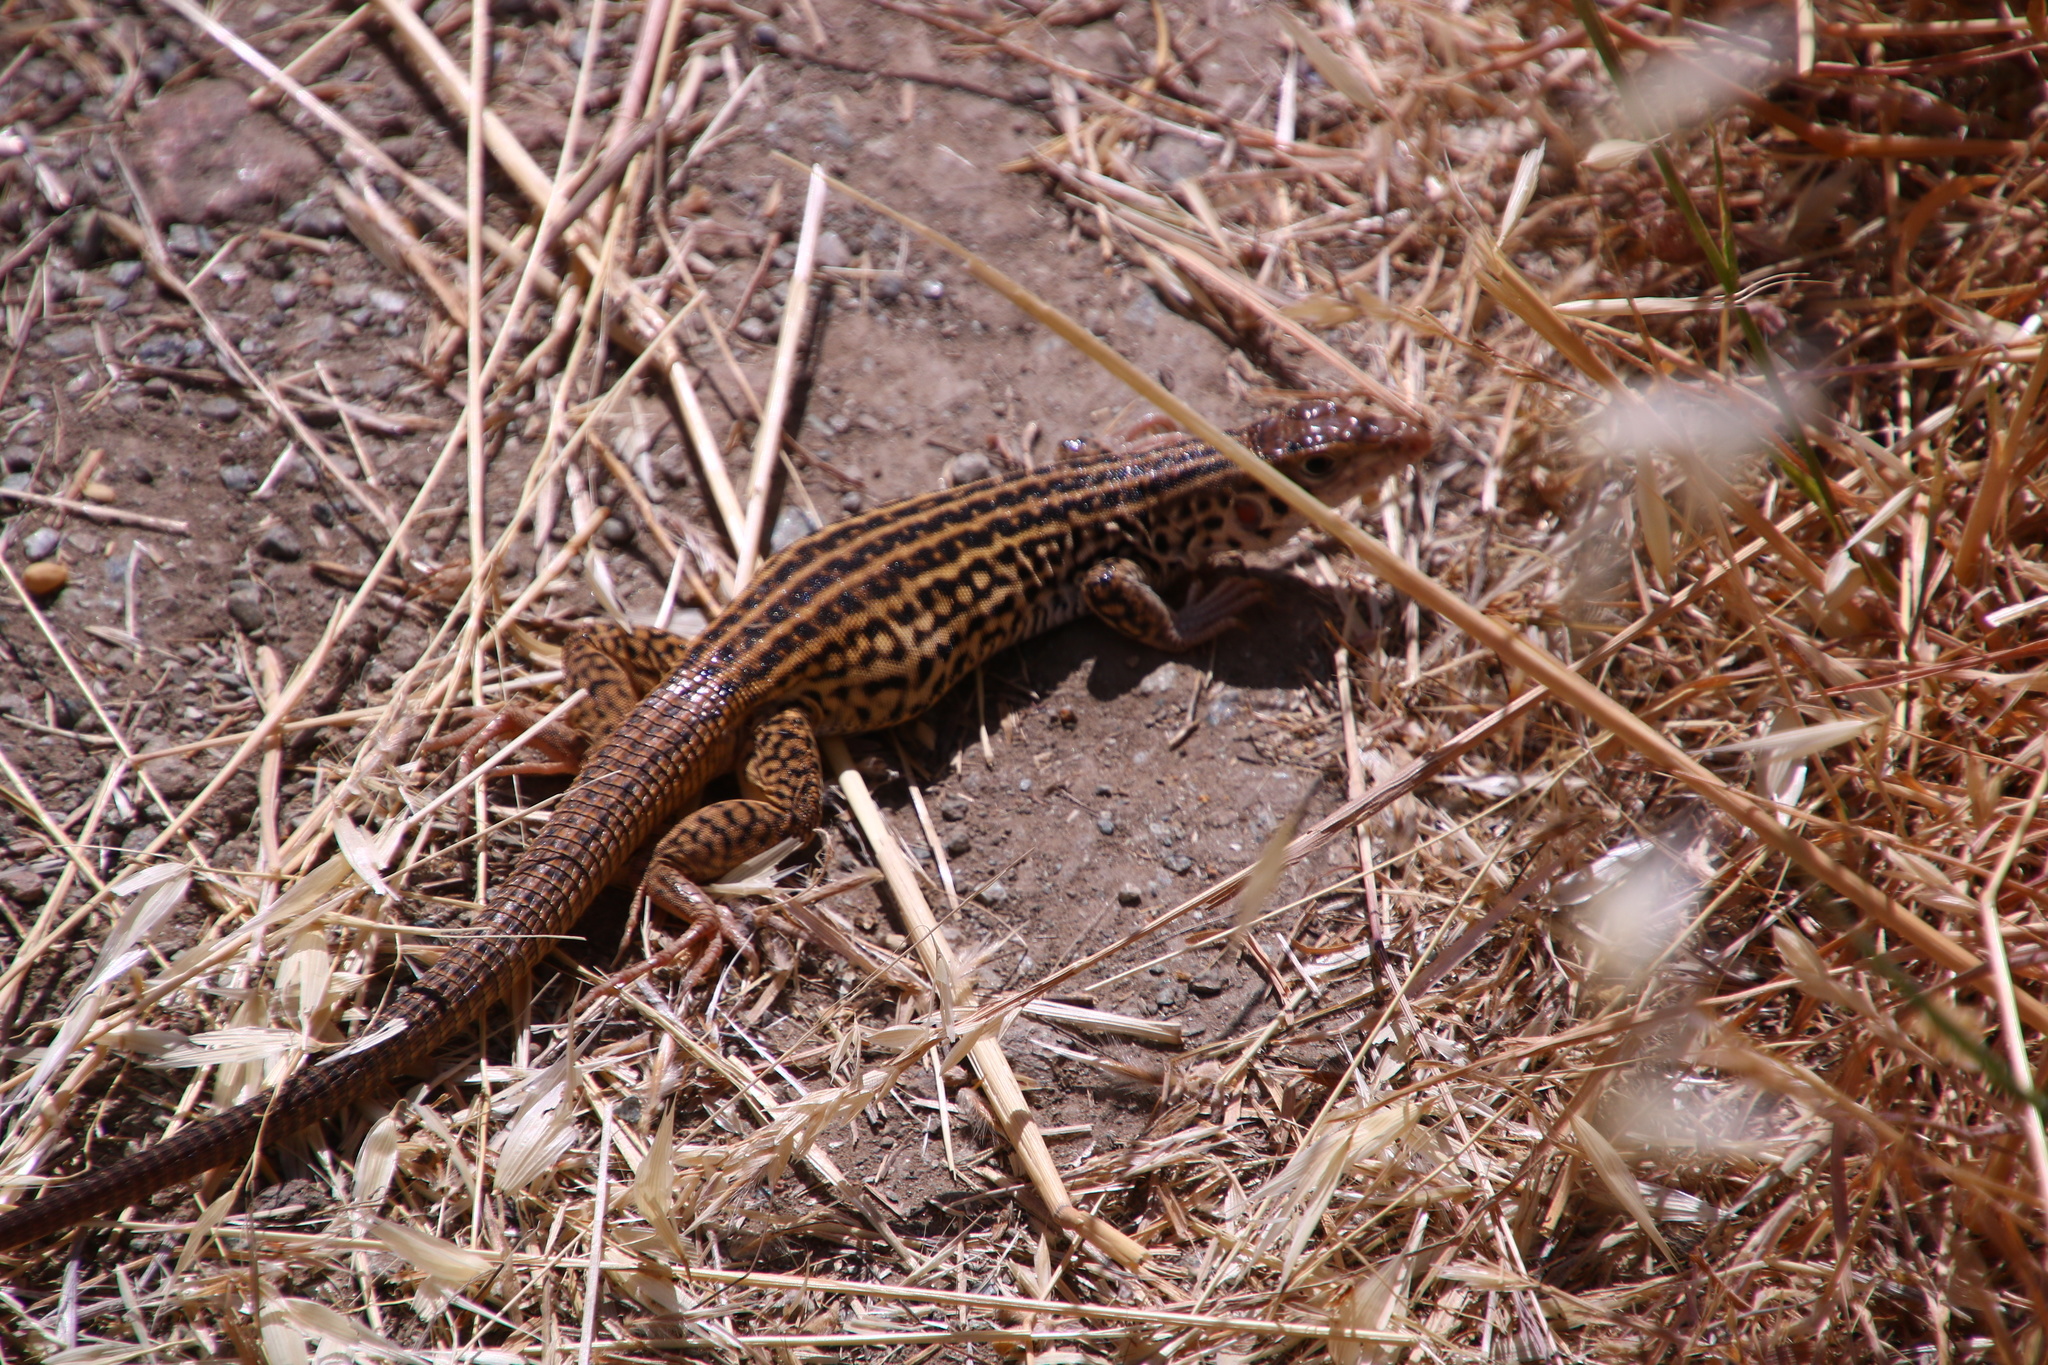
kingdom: Animalia
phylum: Chordata
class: Squamata
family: Teiidae
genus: Aspidoscelis
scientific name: Aspidoscelis tigris
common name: Tiger whiptail
